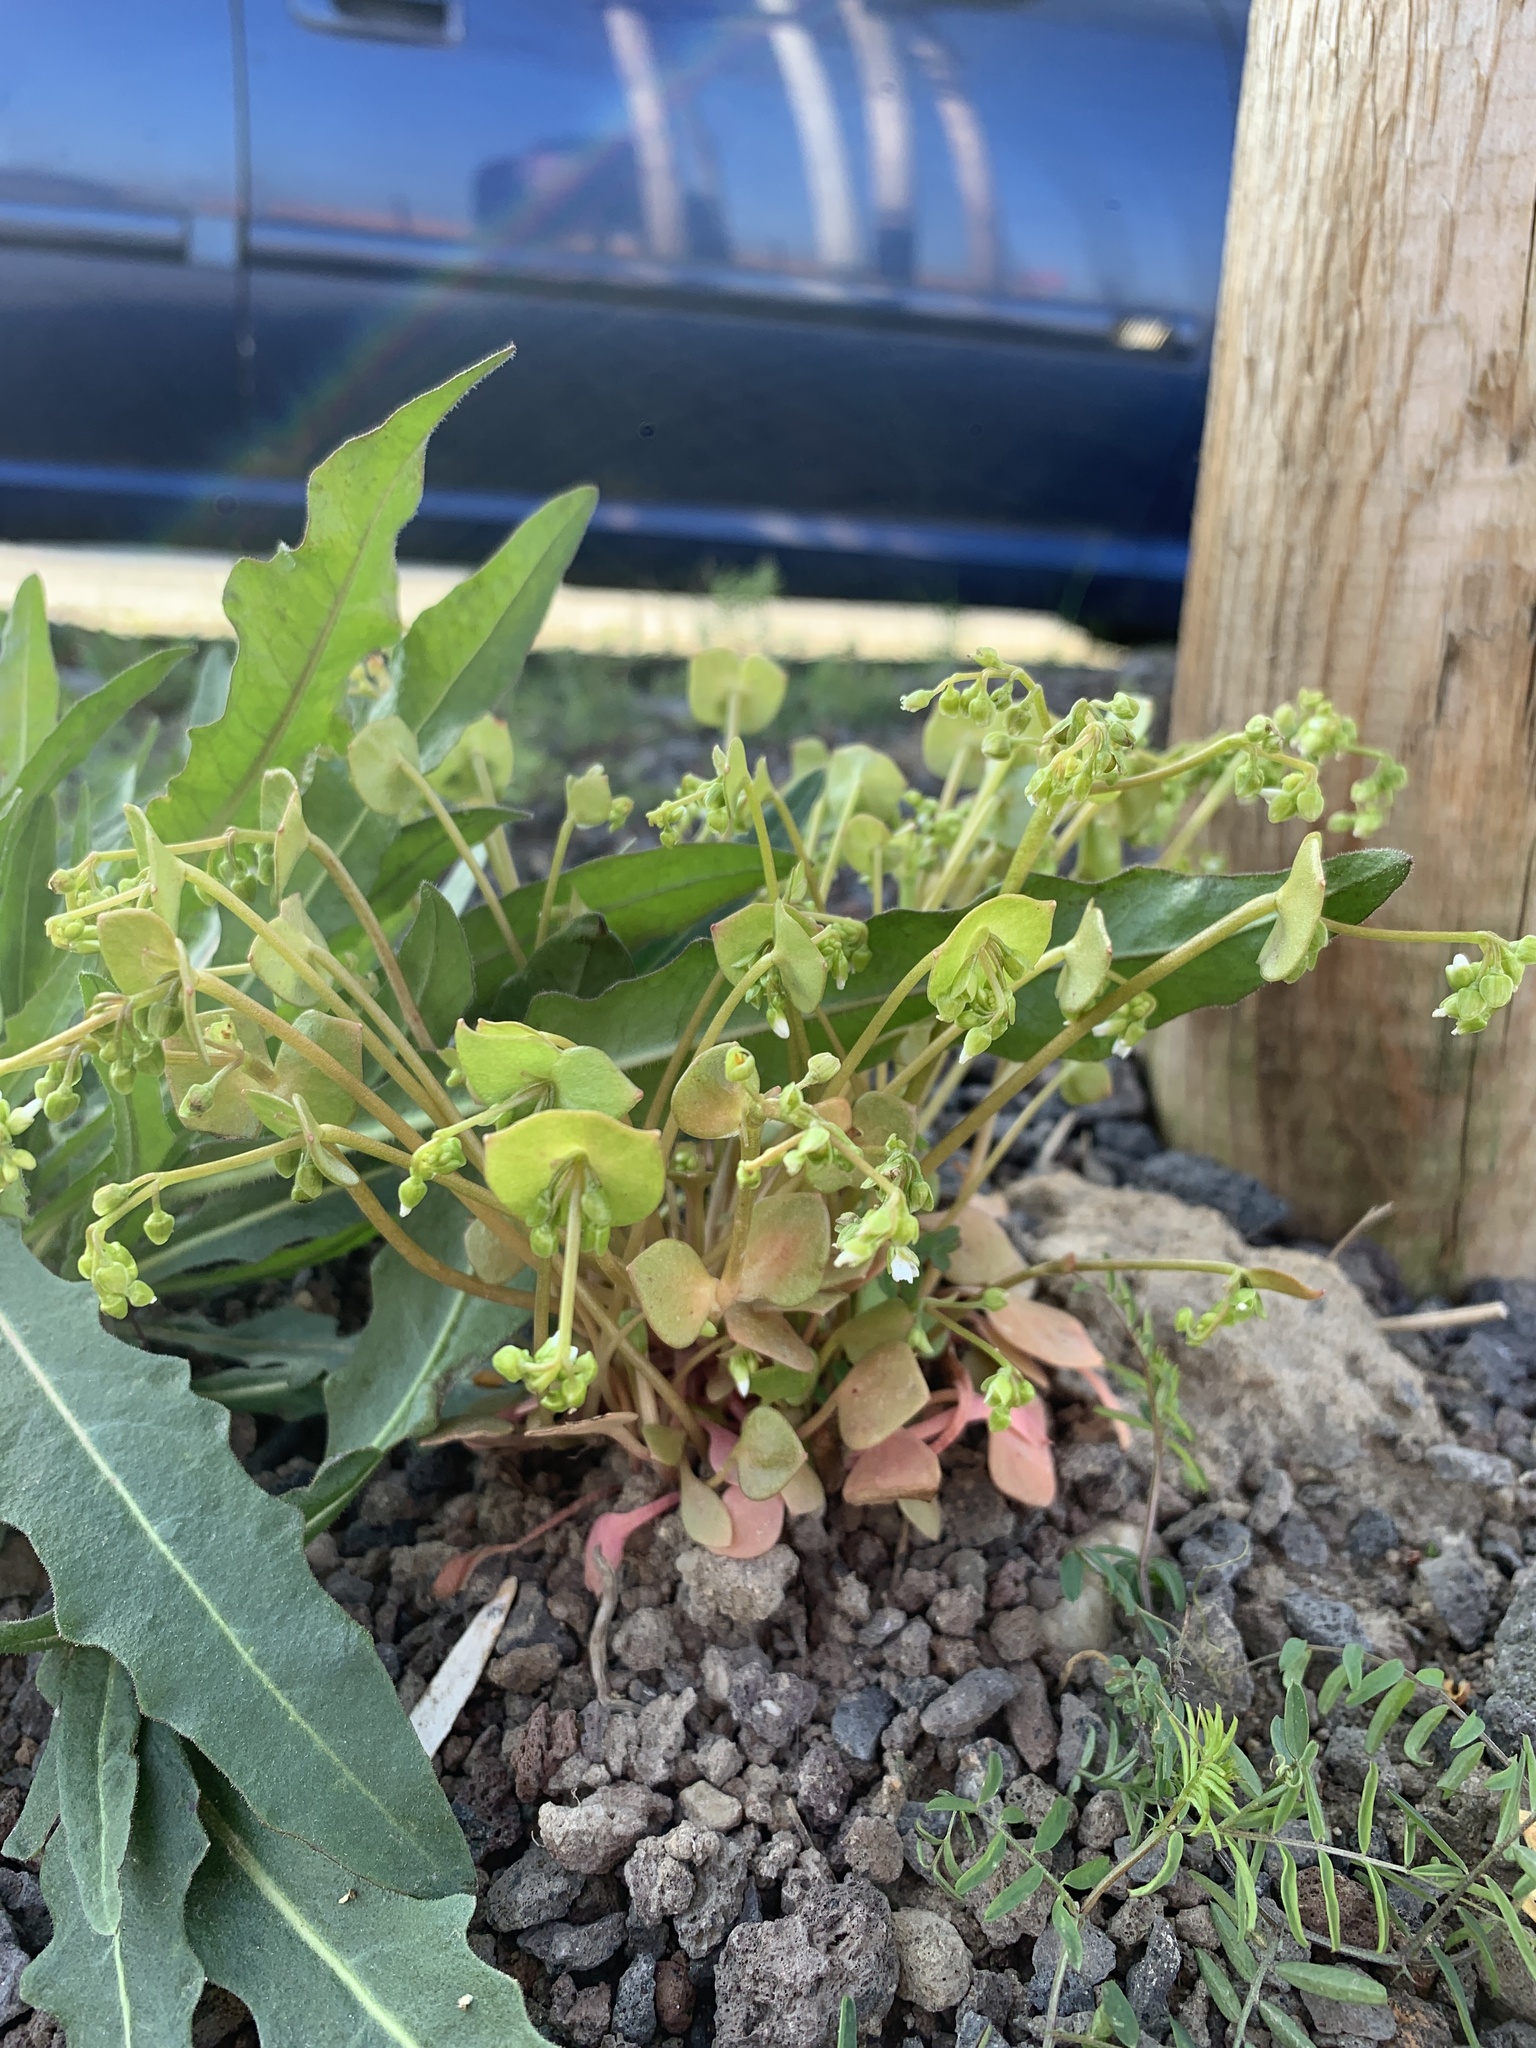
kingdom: Plantae
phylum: Tracheophyta
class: Magnoliopsida
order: Caryophyllales
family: Montiaceae
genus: Claytonia
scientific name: Claytonia perfoliata
